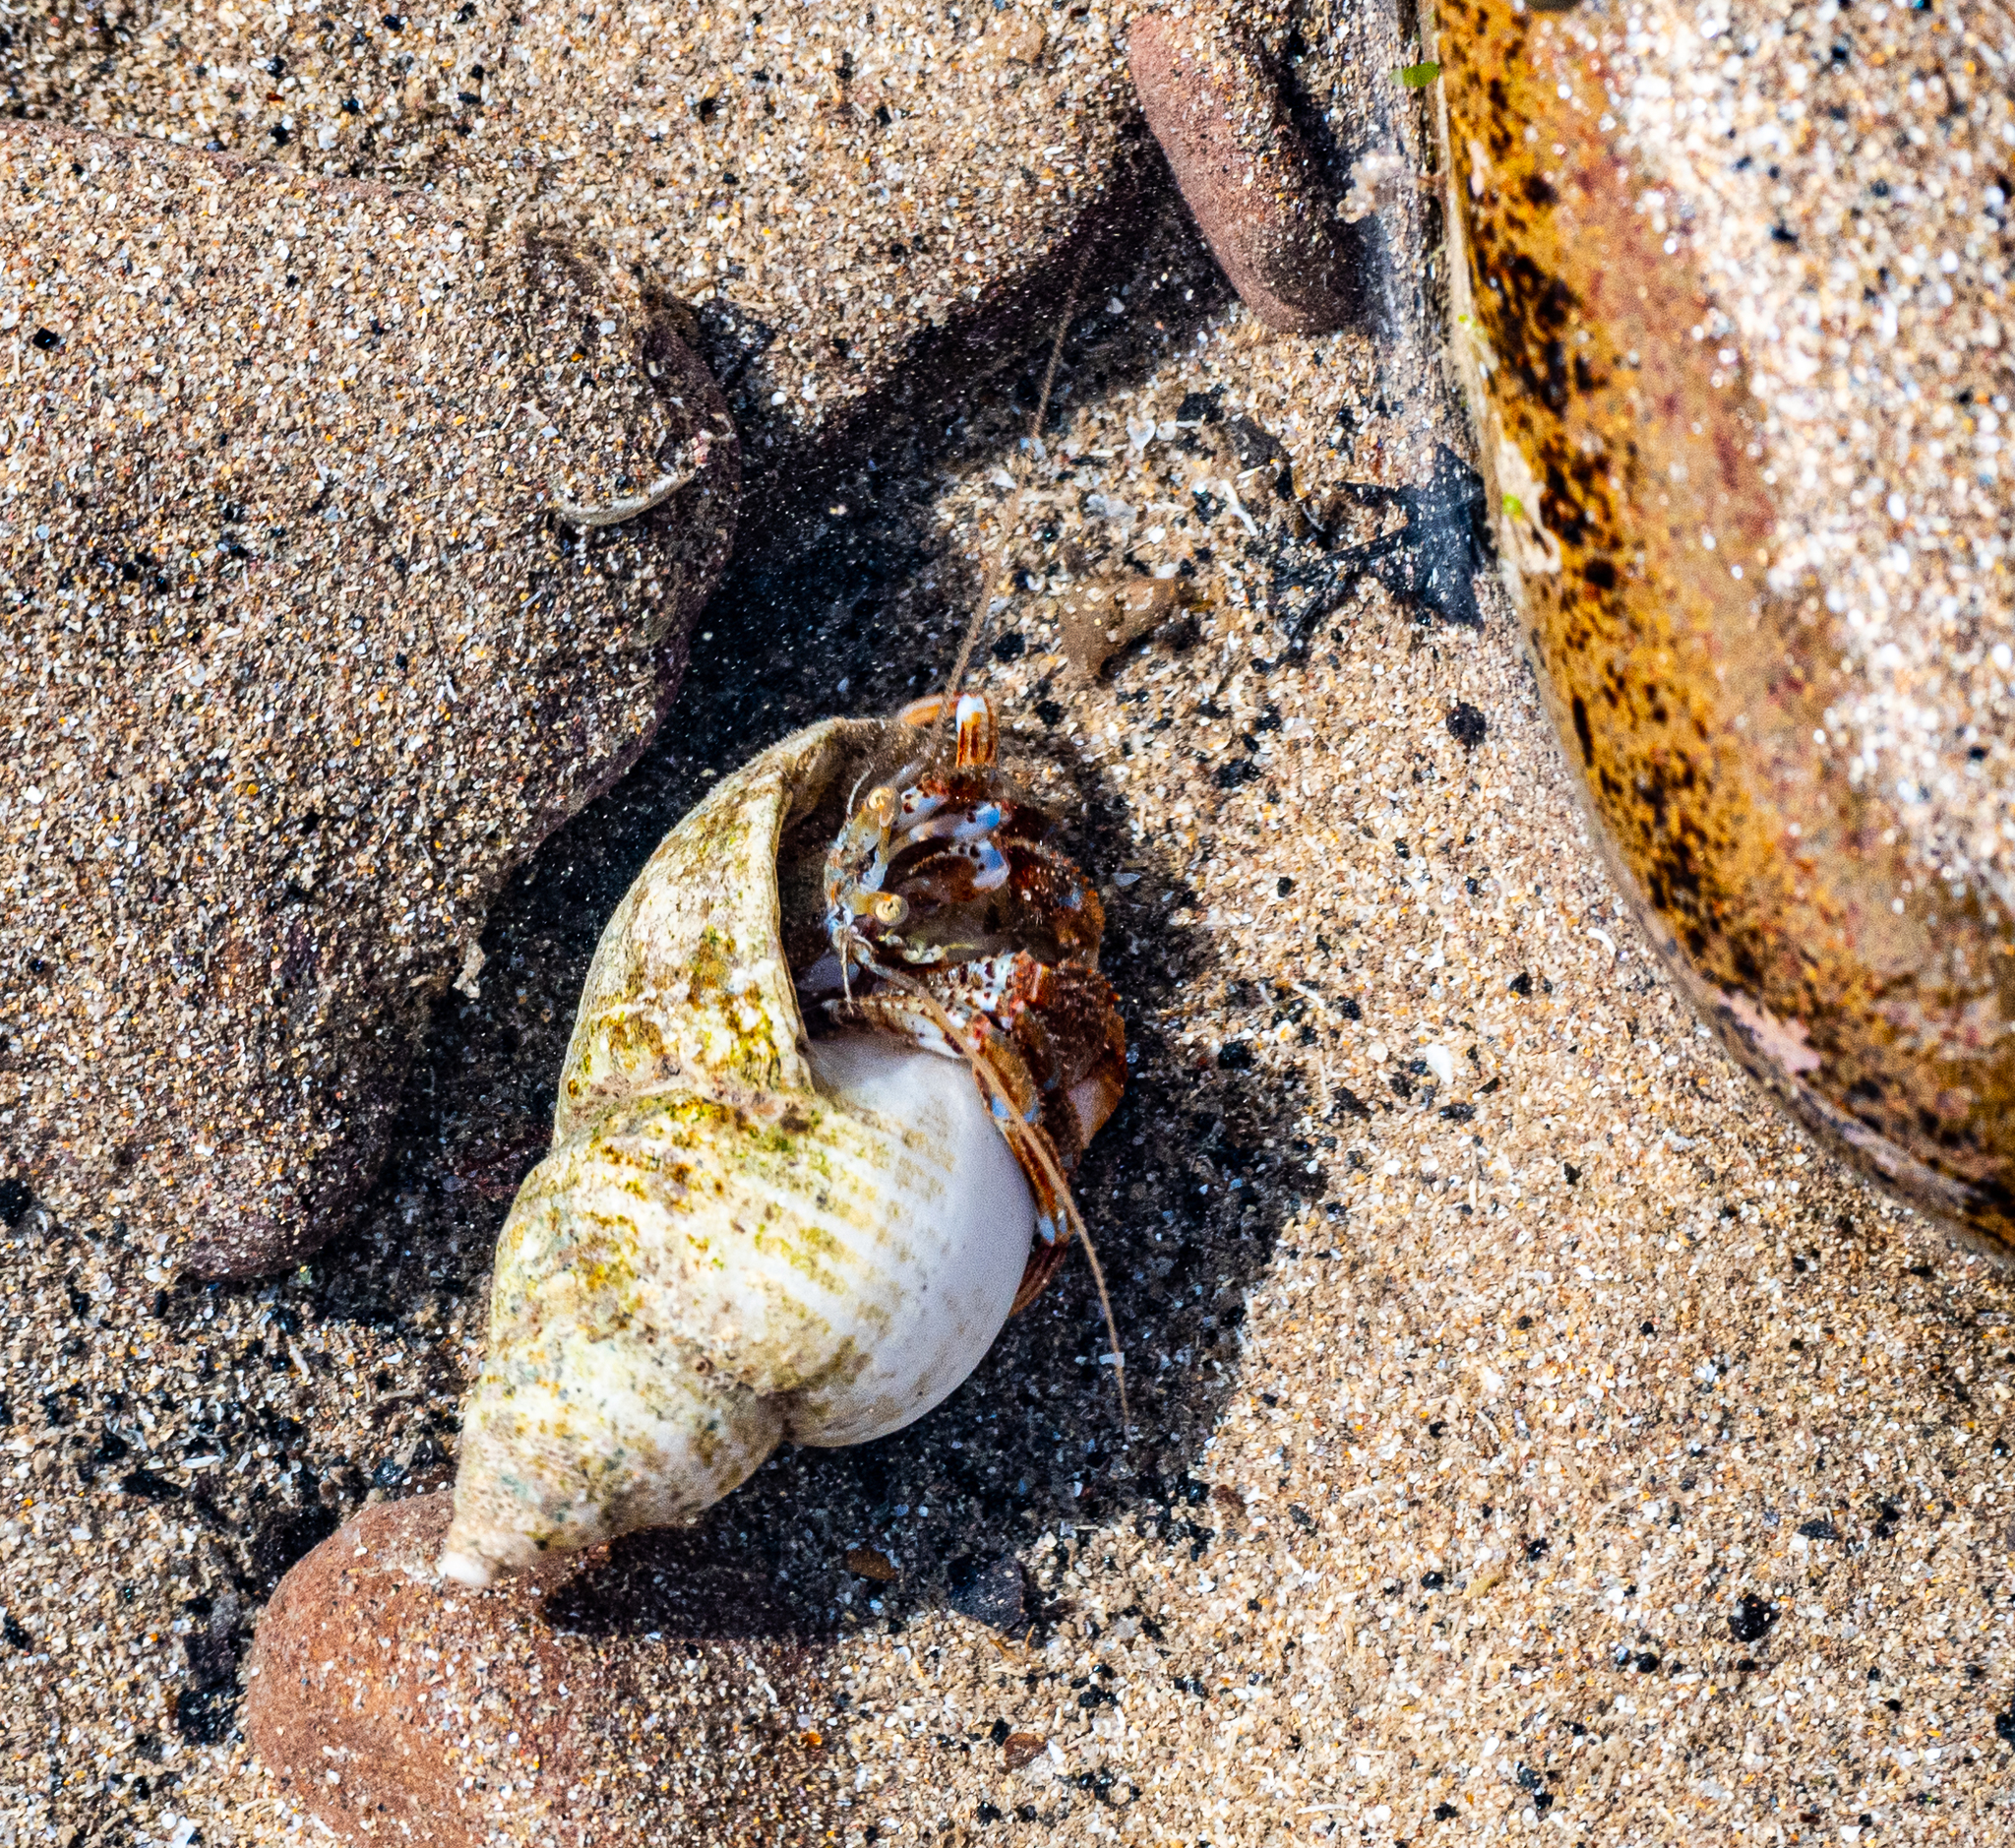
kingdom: Animalia
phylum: Arthropoda
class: Malacostraca
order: Decapoda
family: Paguridae
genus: Pagurus
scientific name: Pagurus bernhardus
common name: Hermit crab
